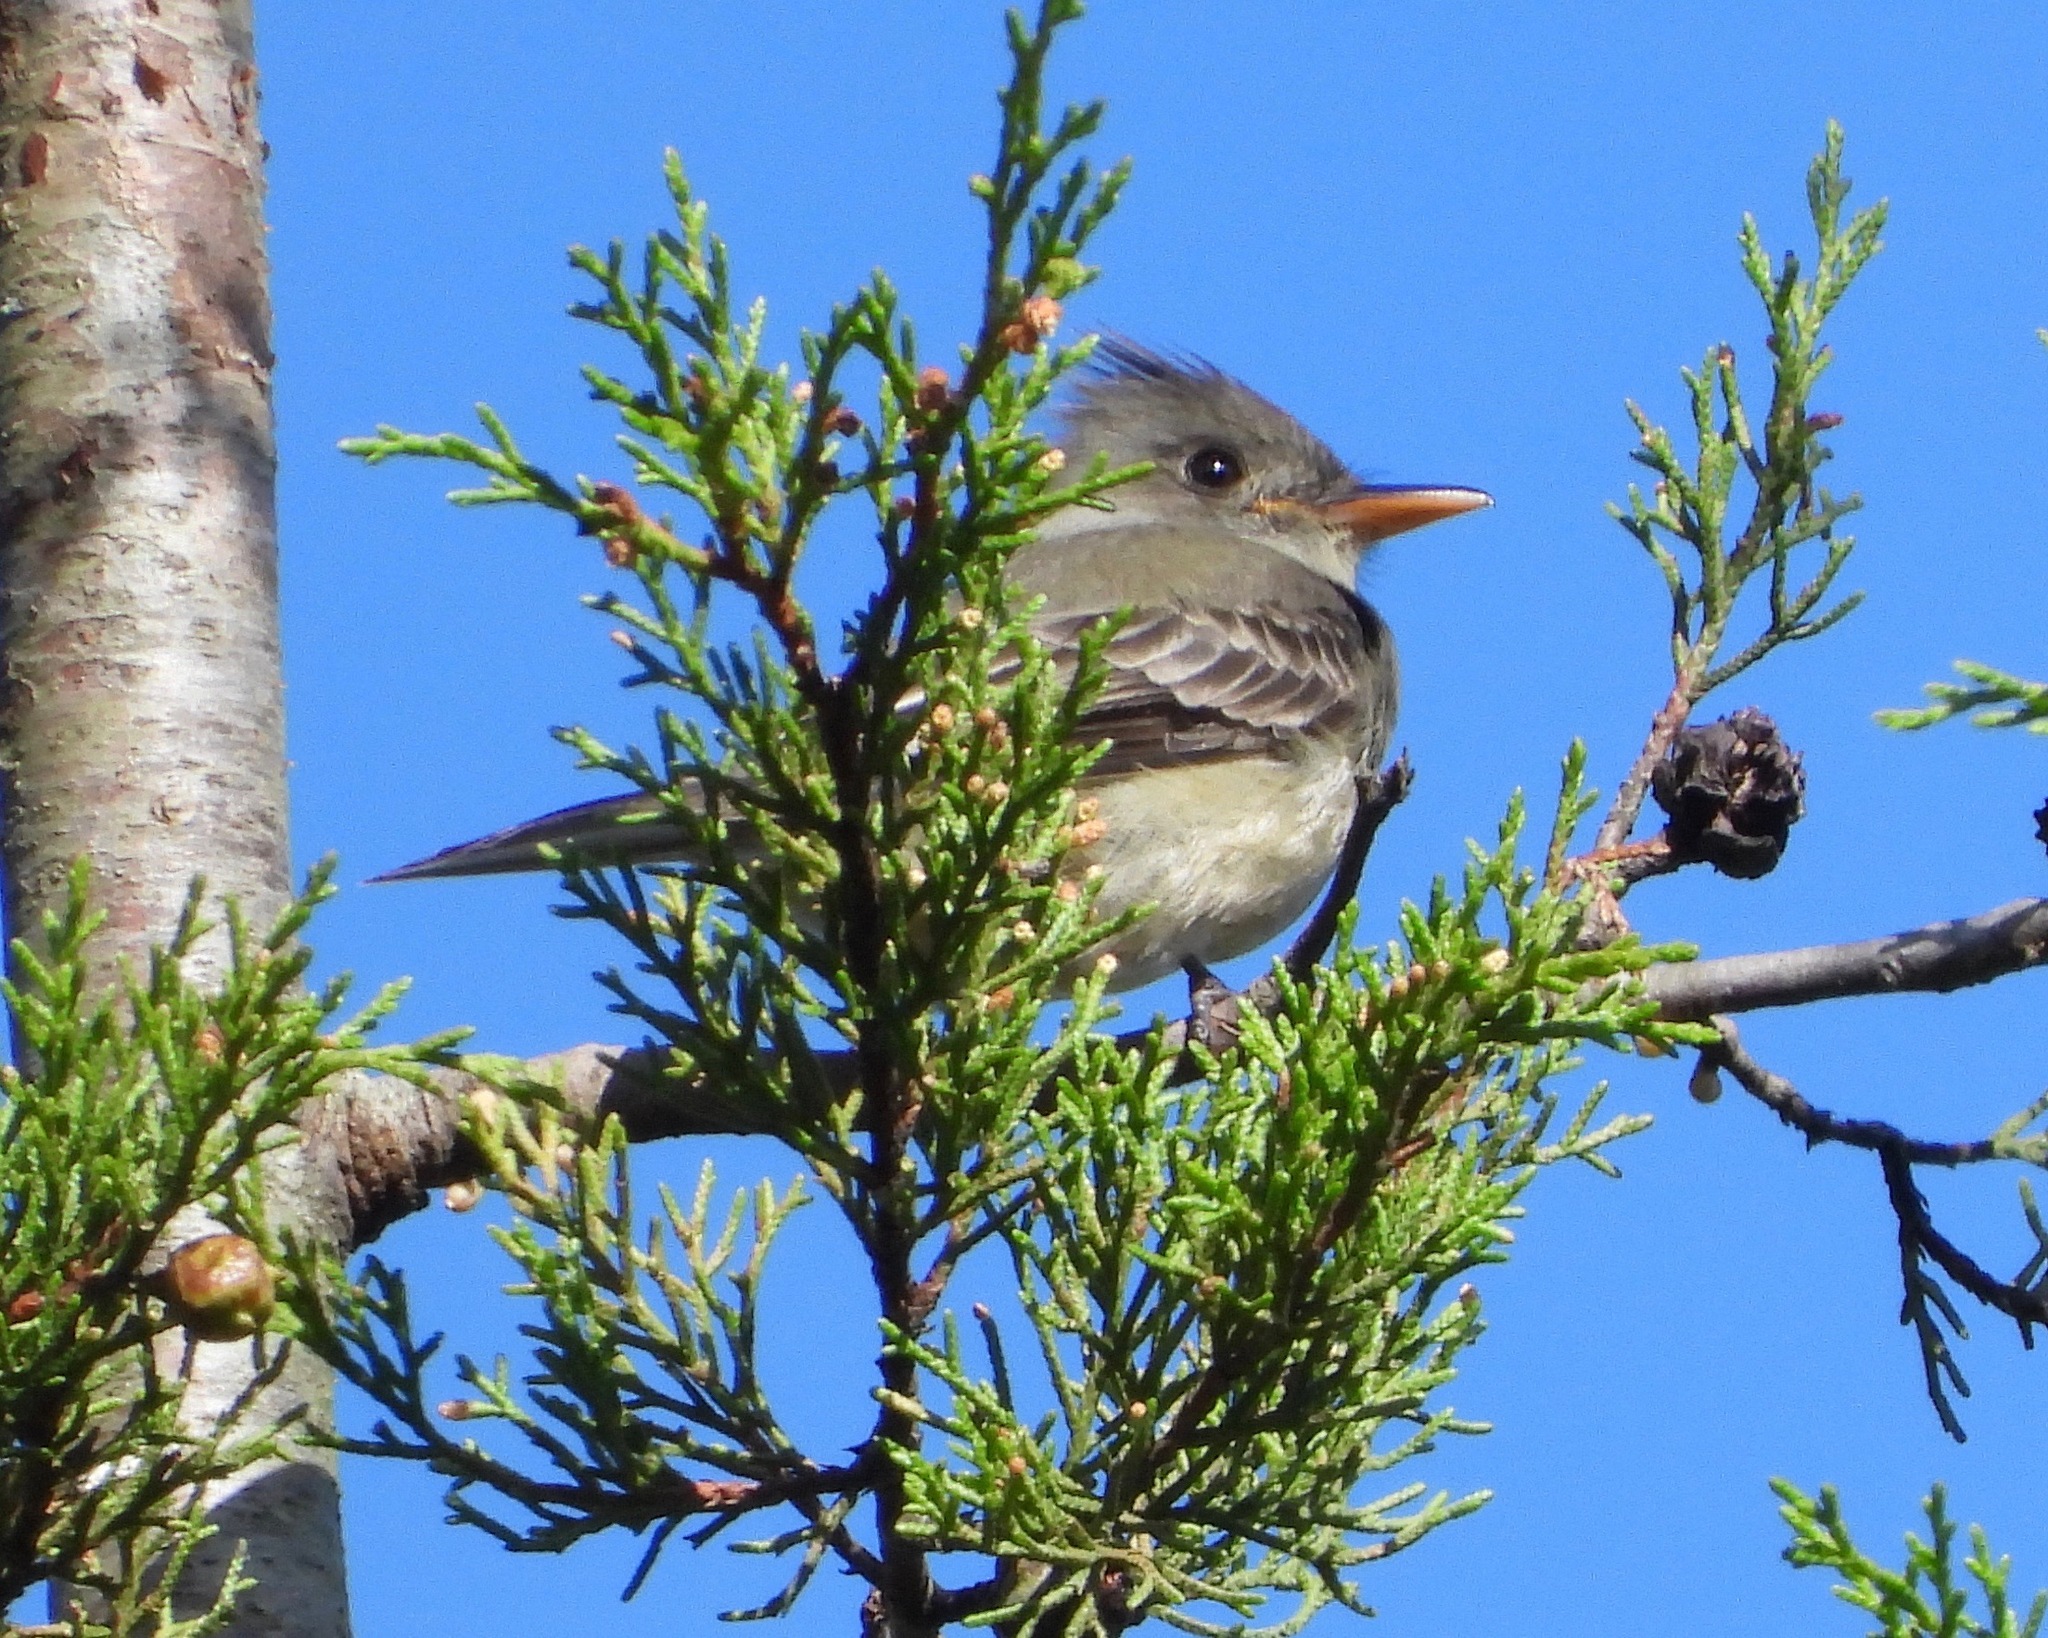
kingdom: Animalia
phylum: Chordata
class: Aves
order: Passeriformes
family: Tyrannidae
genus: Contopus
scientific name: Contopus pertinax
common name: Greater pewee
